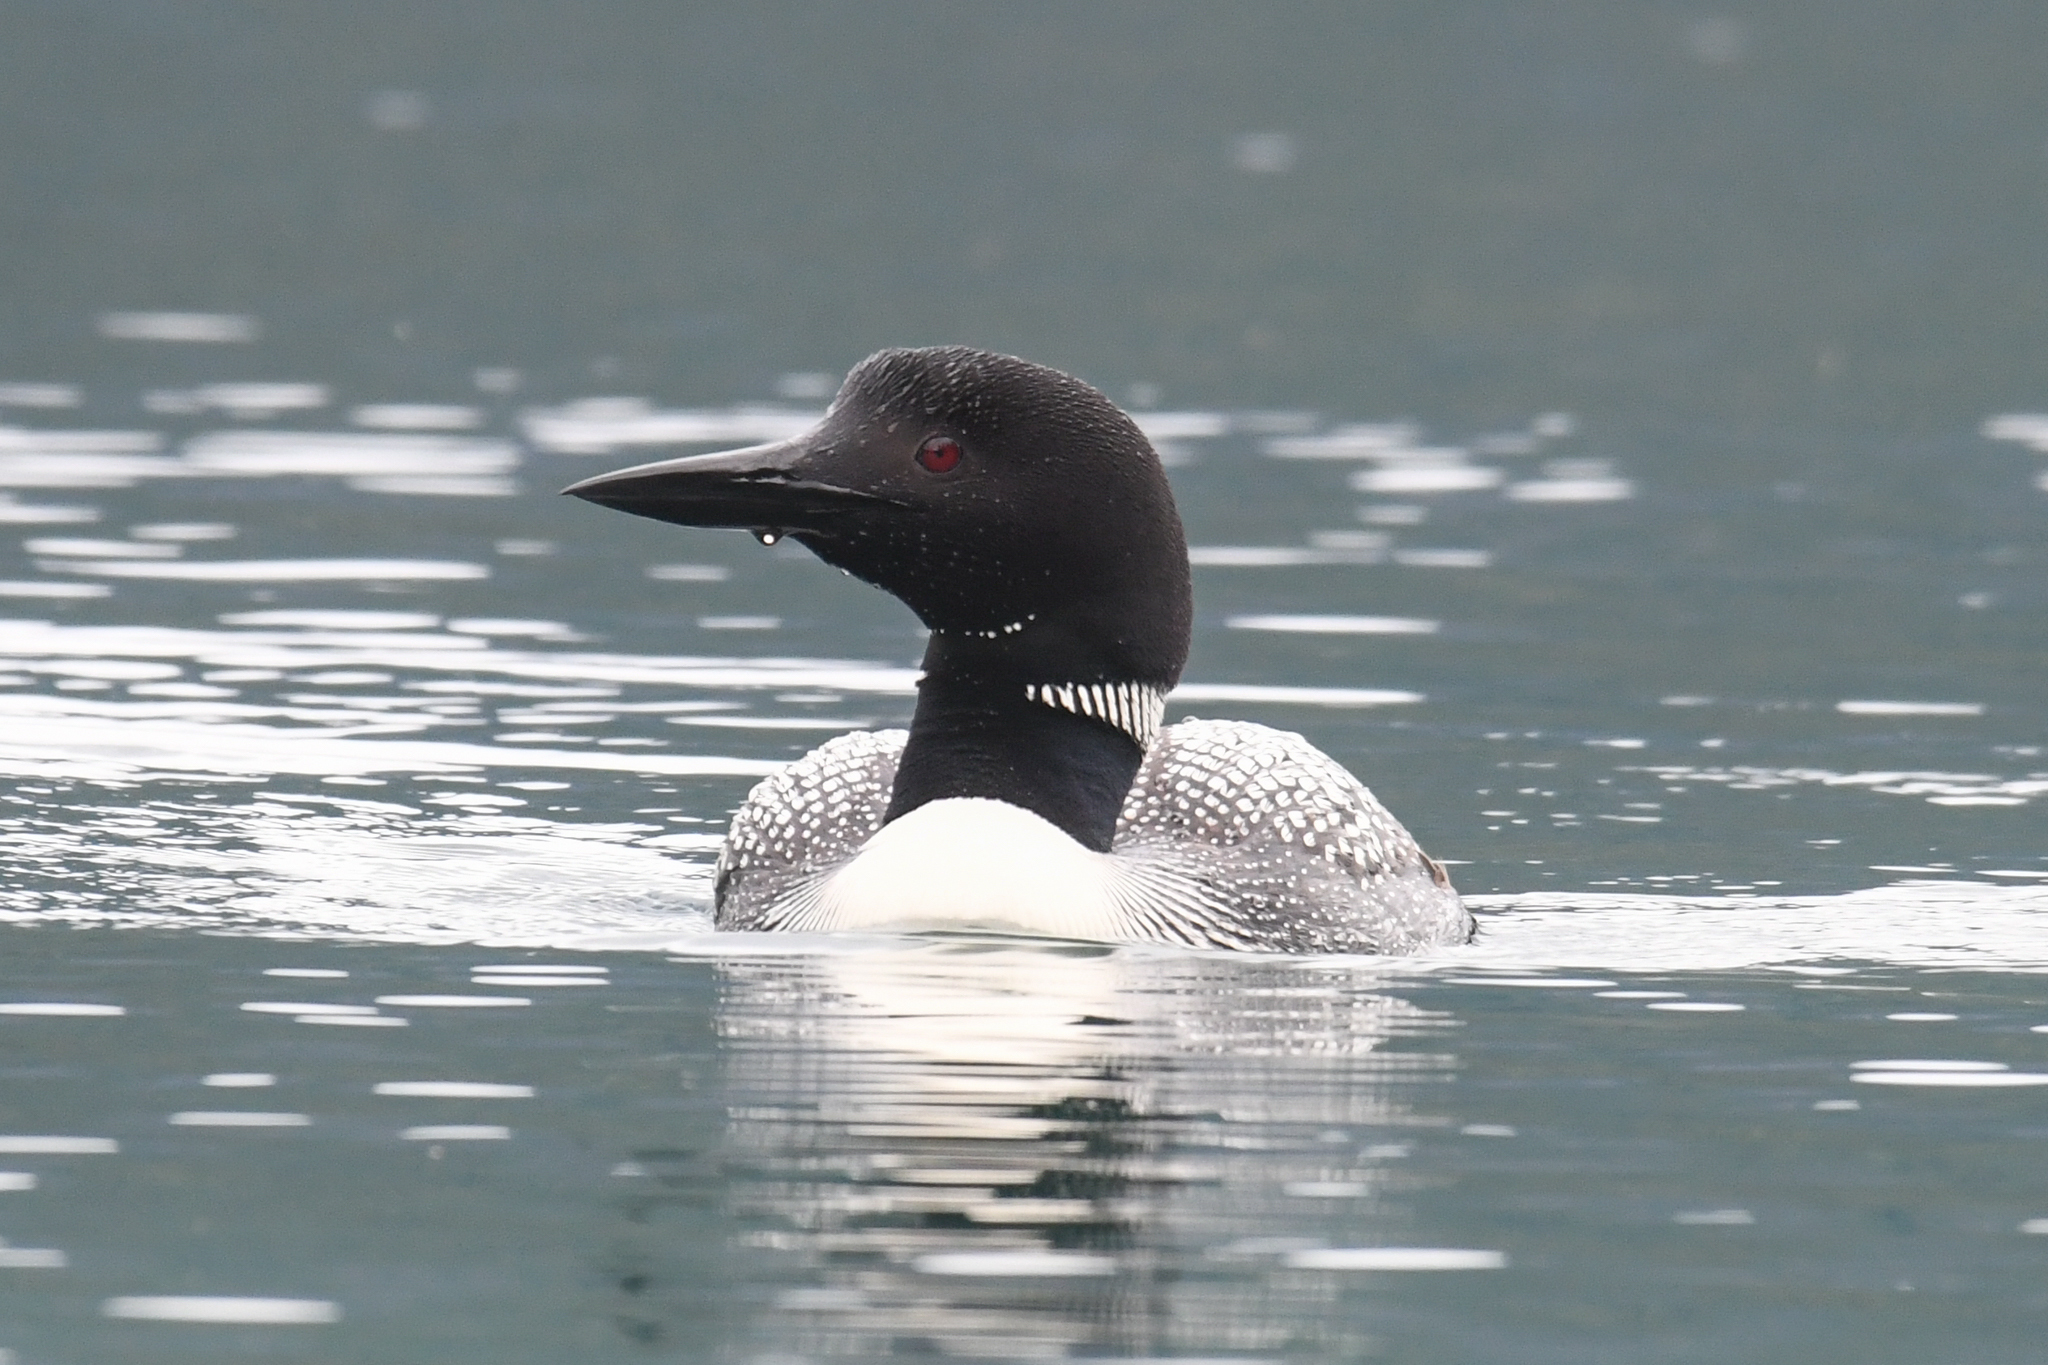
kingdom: Animalia
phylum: Chordata
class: Aves
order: Gaviiformes
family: Gaviidae
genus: Gavia
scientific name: Gavia immer
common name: Common loon
